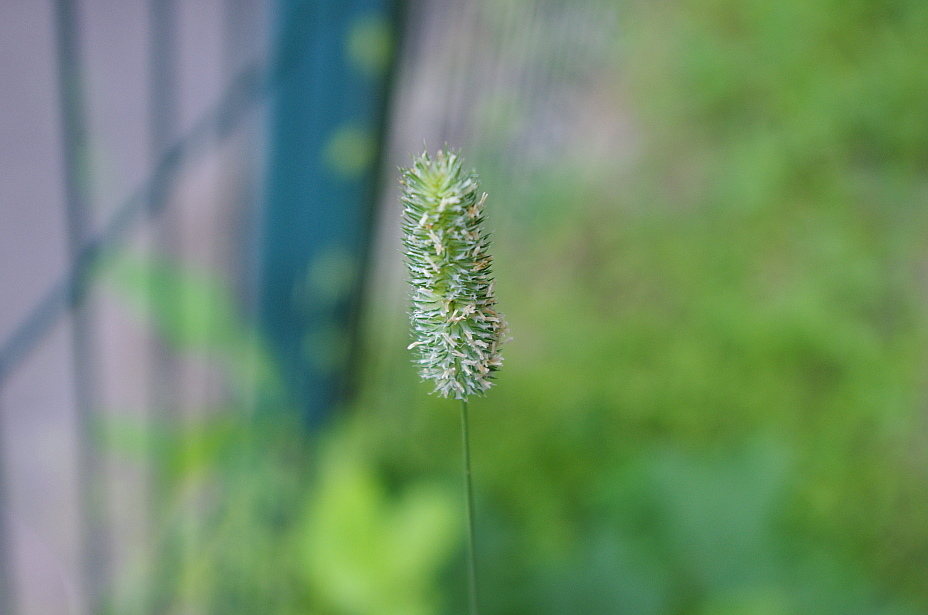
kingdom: Plantae
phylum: Tracheophyta
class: Liliopsida
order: Poales
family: Poaceae
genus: Phleum
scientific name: Phleum pratense
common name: Timothy grass
